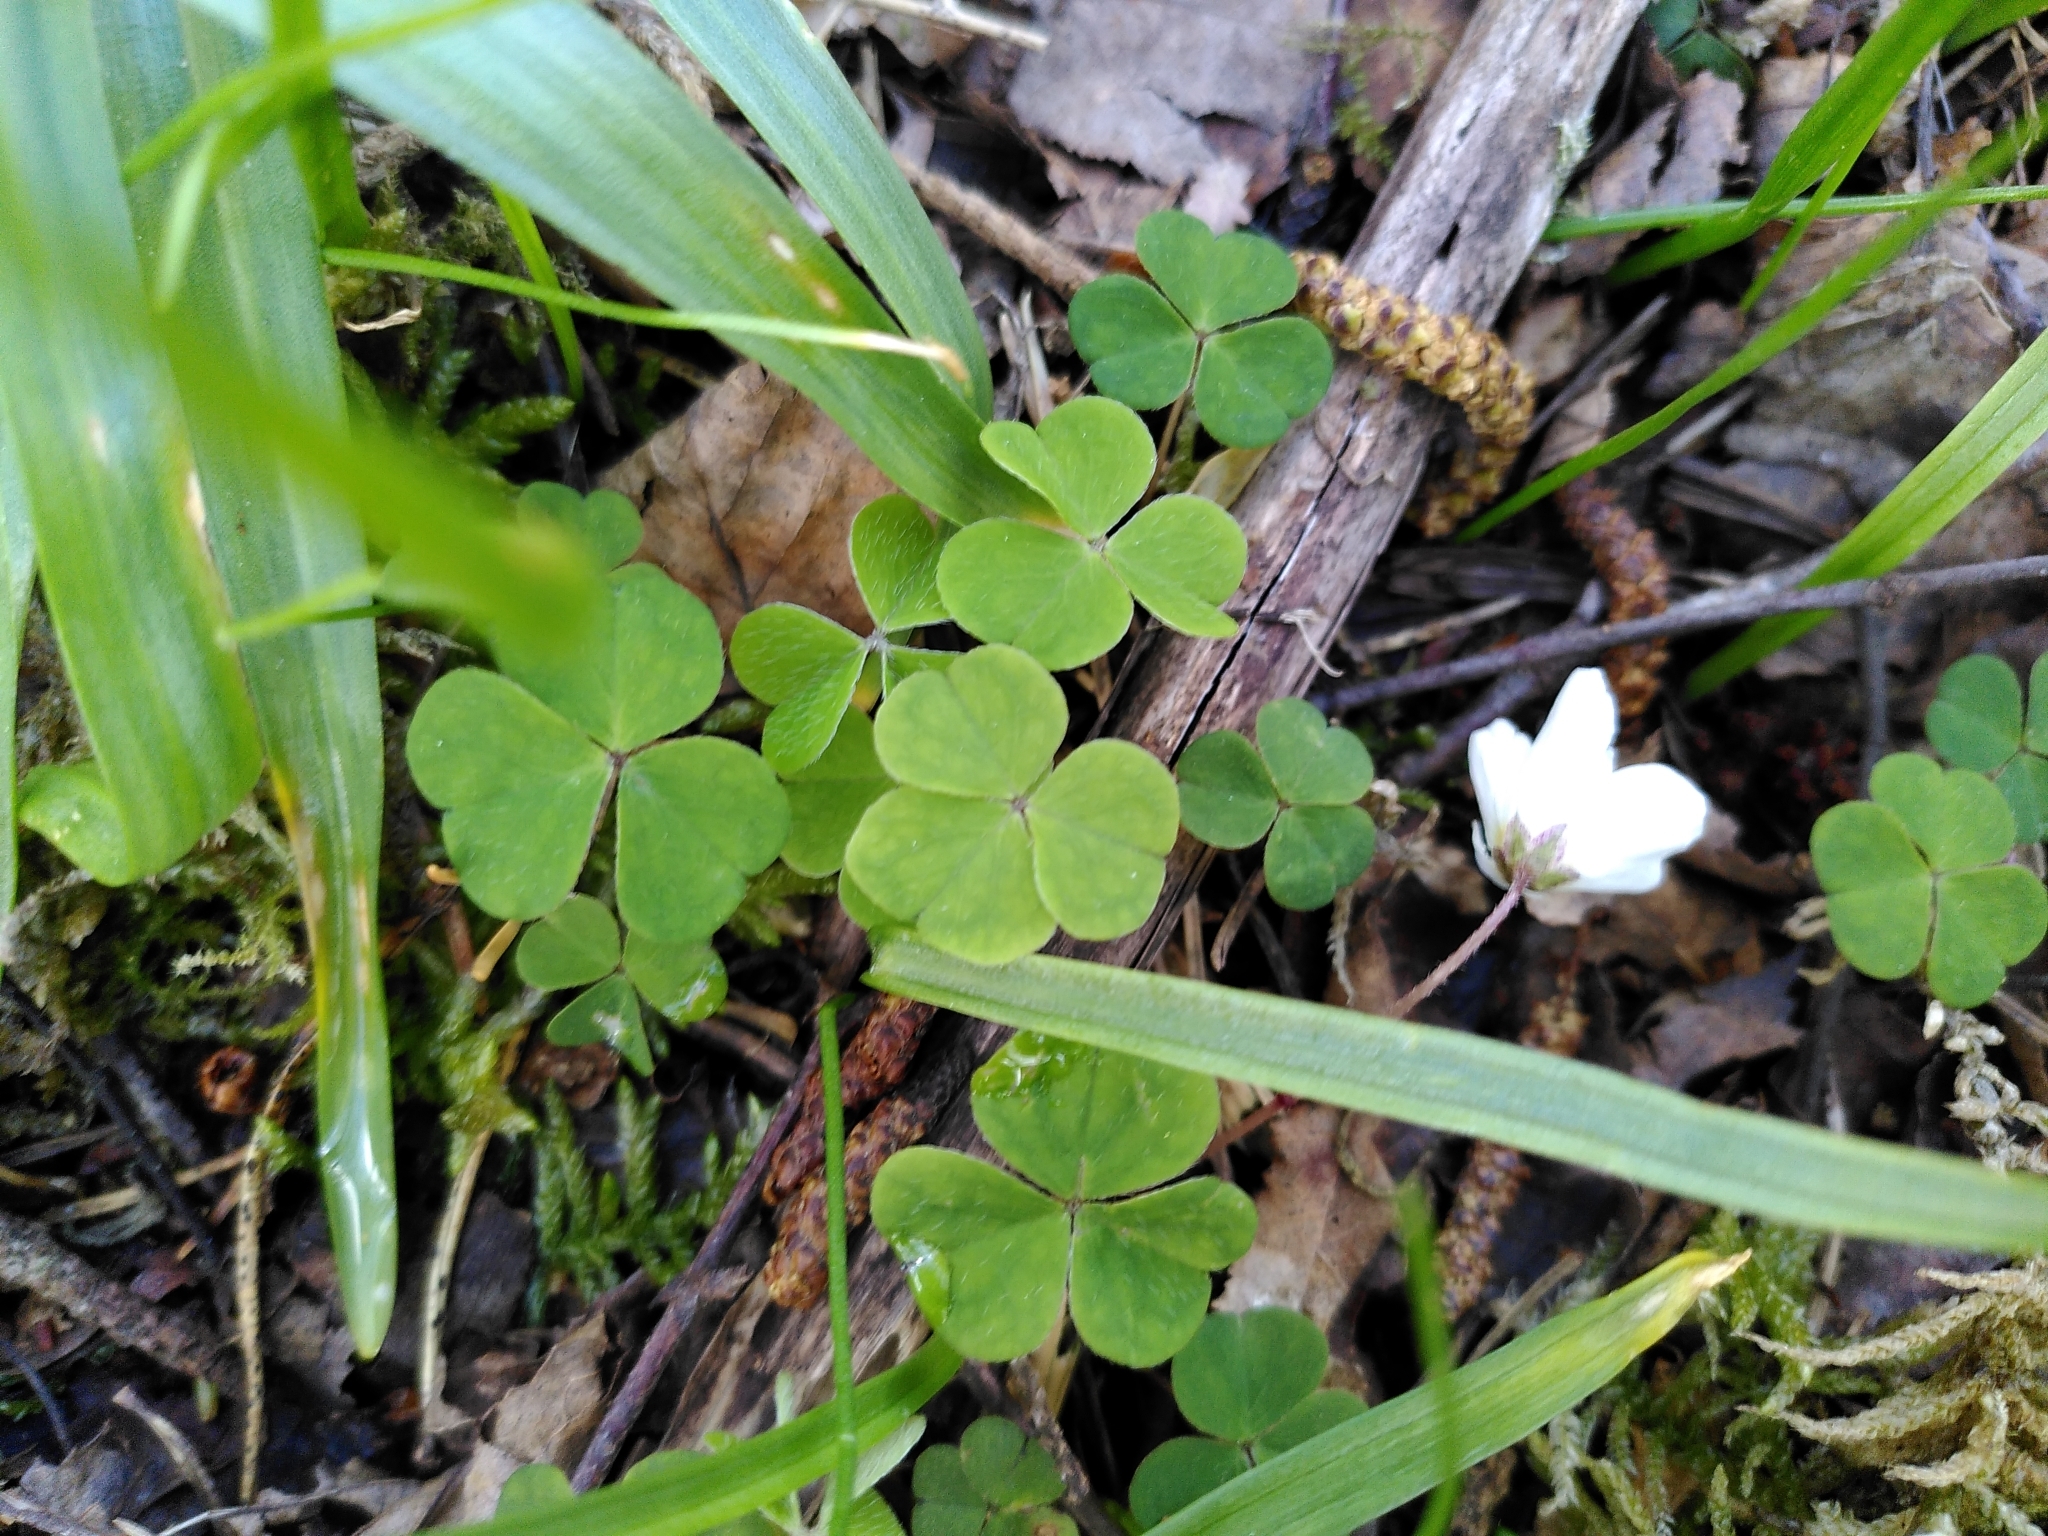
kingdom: Plantae
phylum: Tracheophyta
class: Magnoliopsida
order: Oxalidales
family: Oxalidaceae
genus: Oxalis
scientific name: Oxalis acetosella
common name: Wood-sorrel
